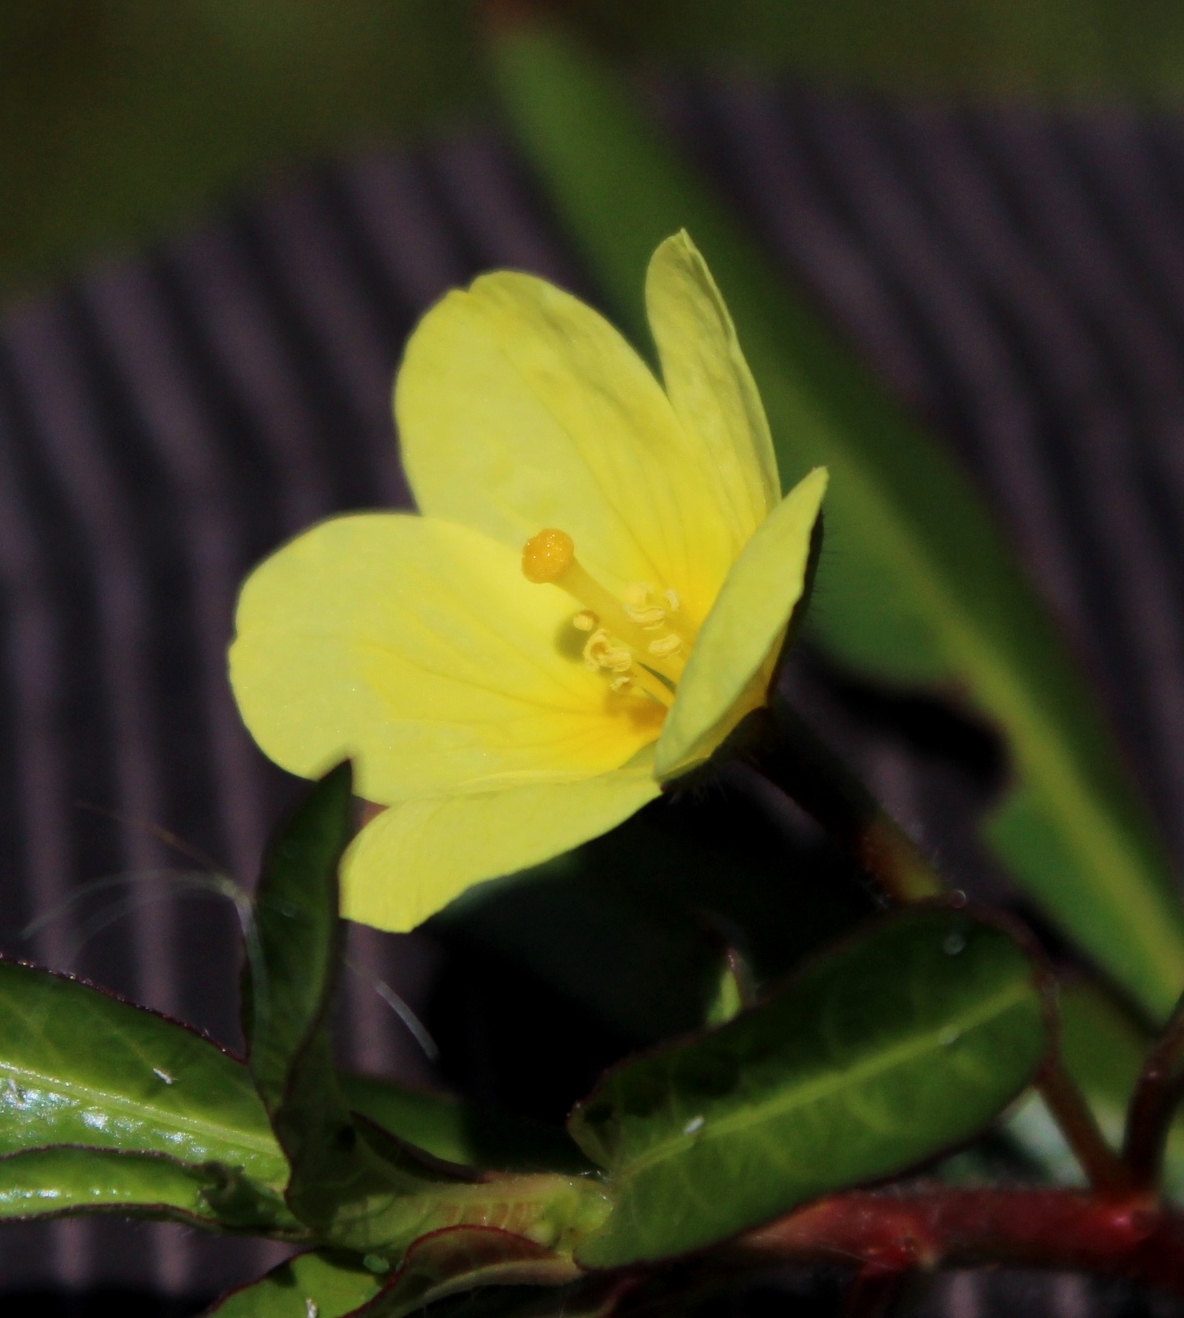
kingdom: Plantae
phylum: Tracheophyta
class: Magnoliopsida
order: Myrtales
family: Onagraceae
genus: Ludwigia
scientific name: Ludwigia adscendens
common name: Creeping water primrose
